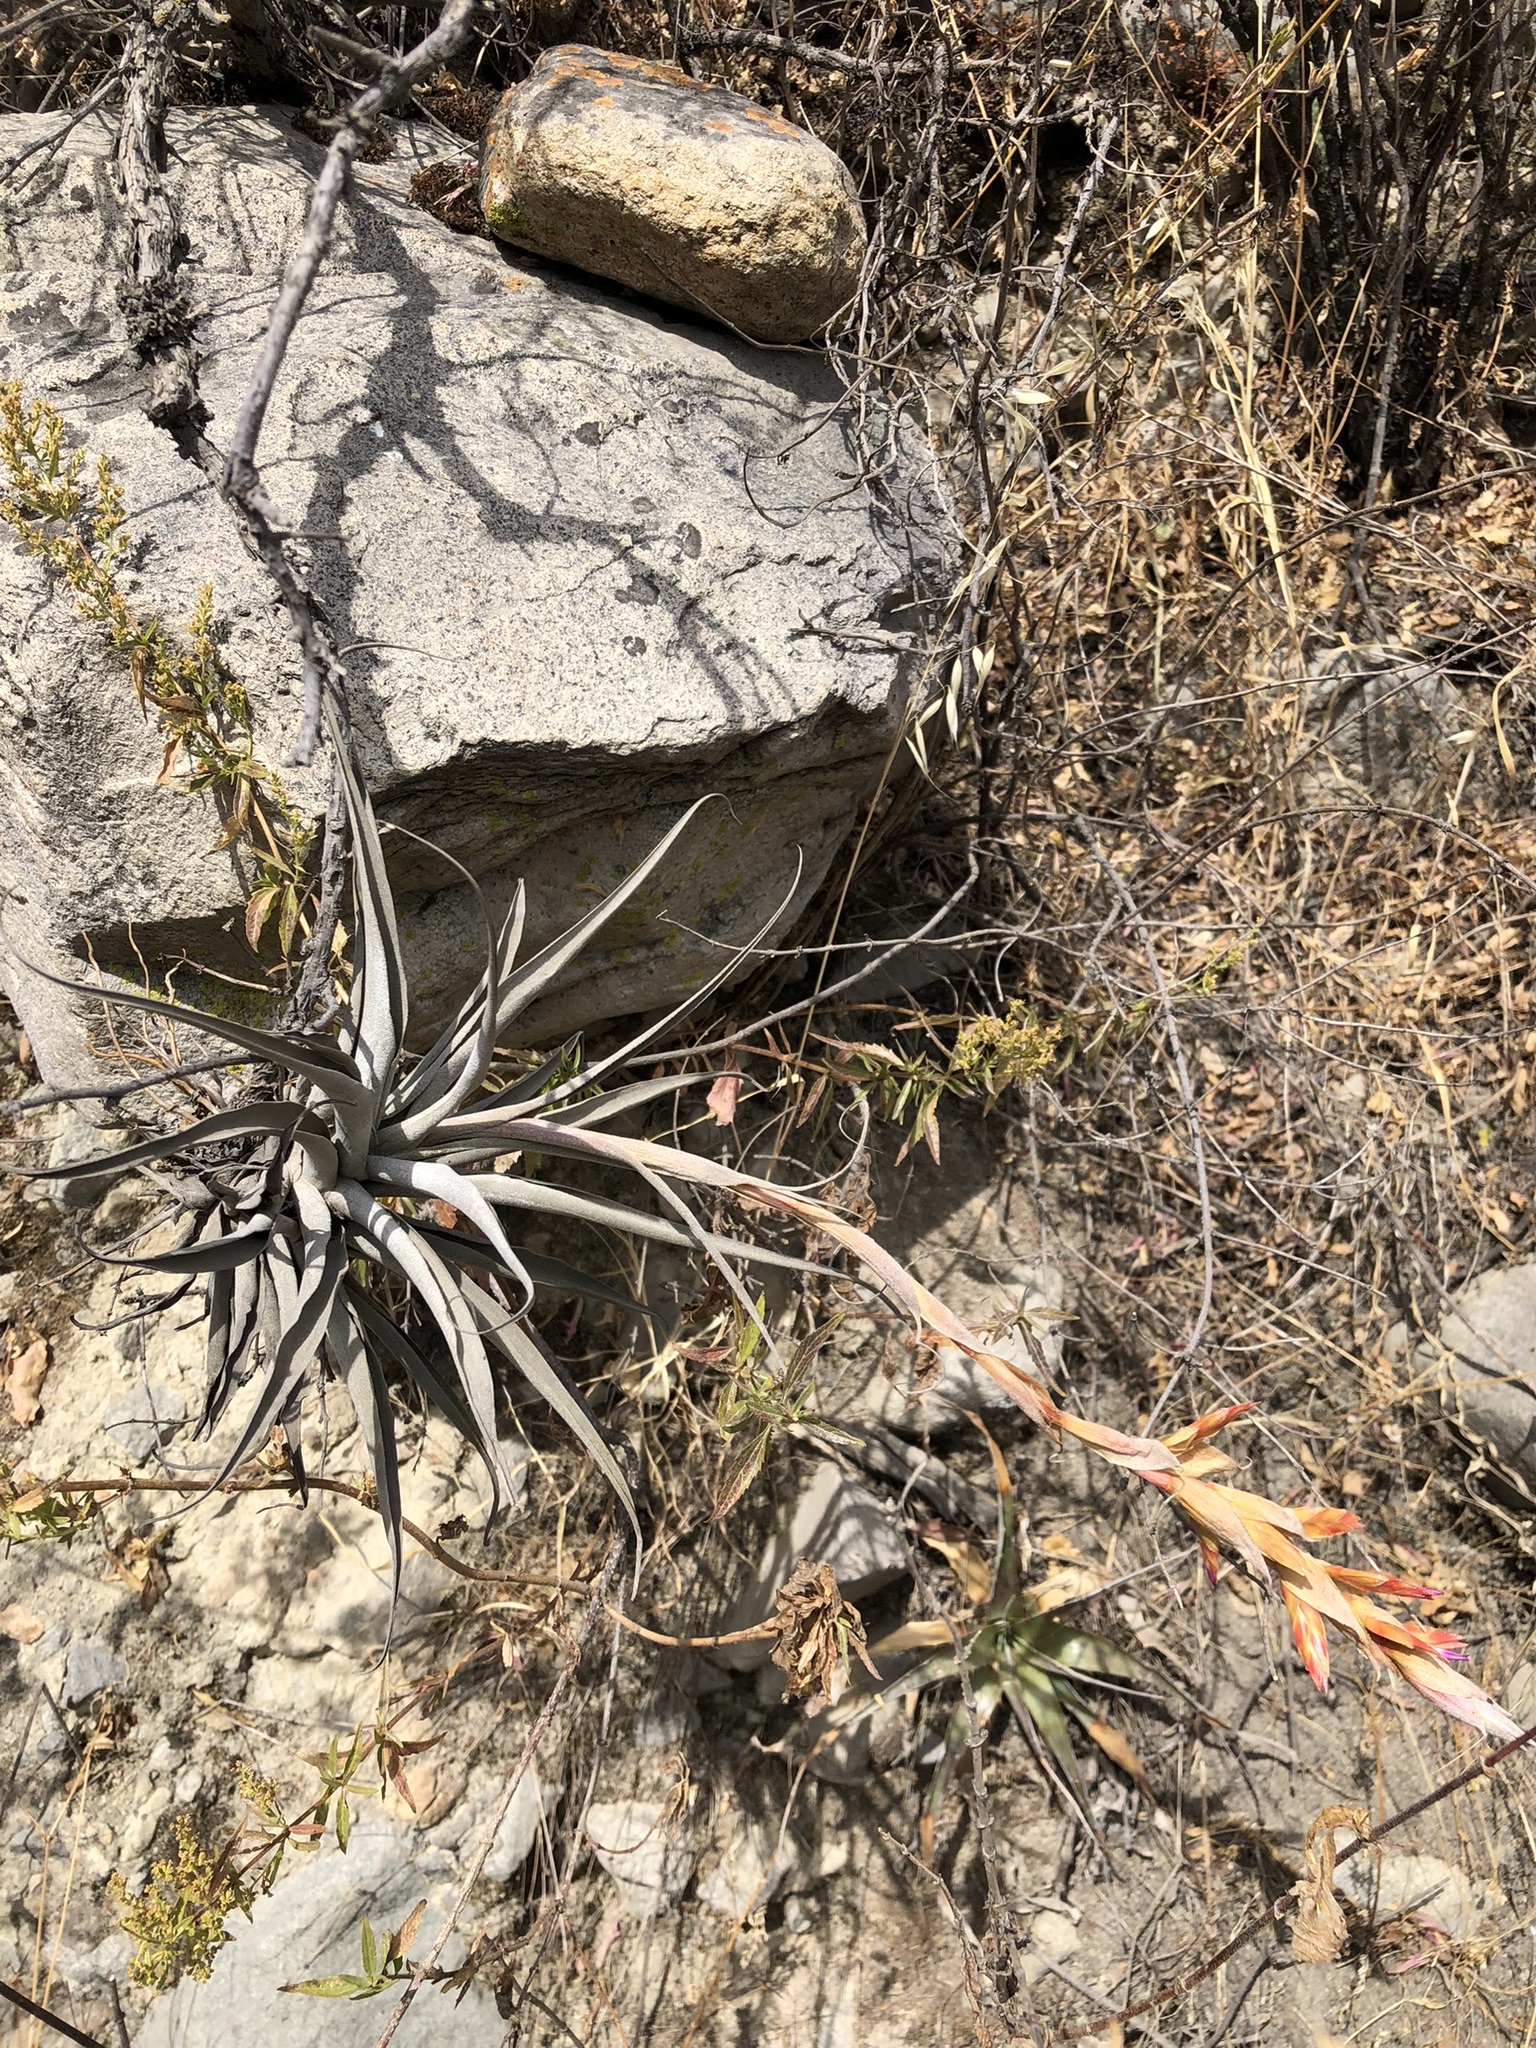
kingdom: Plantae
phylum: Tracheophyta
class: Liliopsida
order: Poales
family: Bromeliaceae
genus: Tillandsia
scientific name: Tillandsia latifolia
